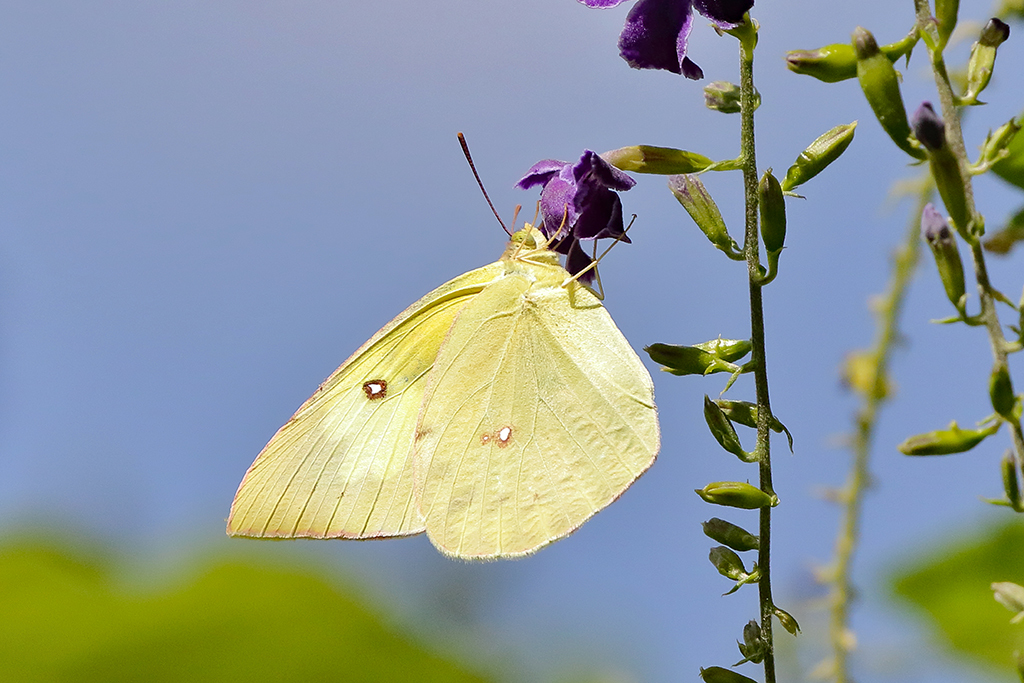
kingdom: Animalia
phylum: Arthropoda
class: Insecta
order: Lepidoptera
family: Pieridae
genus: Zerene
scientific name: Zerene cesonia
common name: Southern dogface
